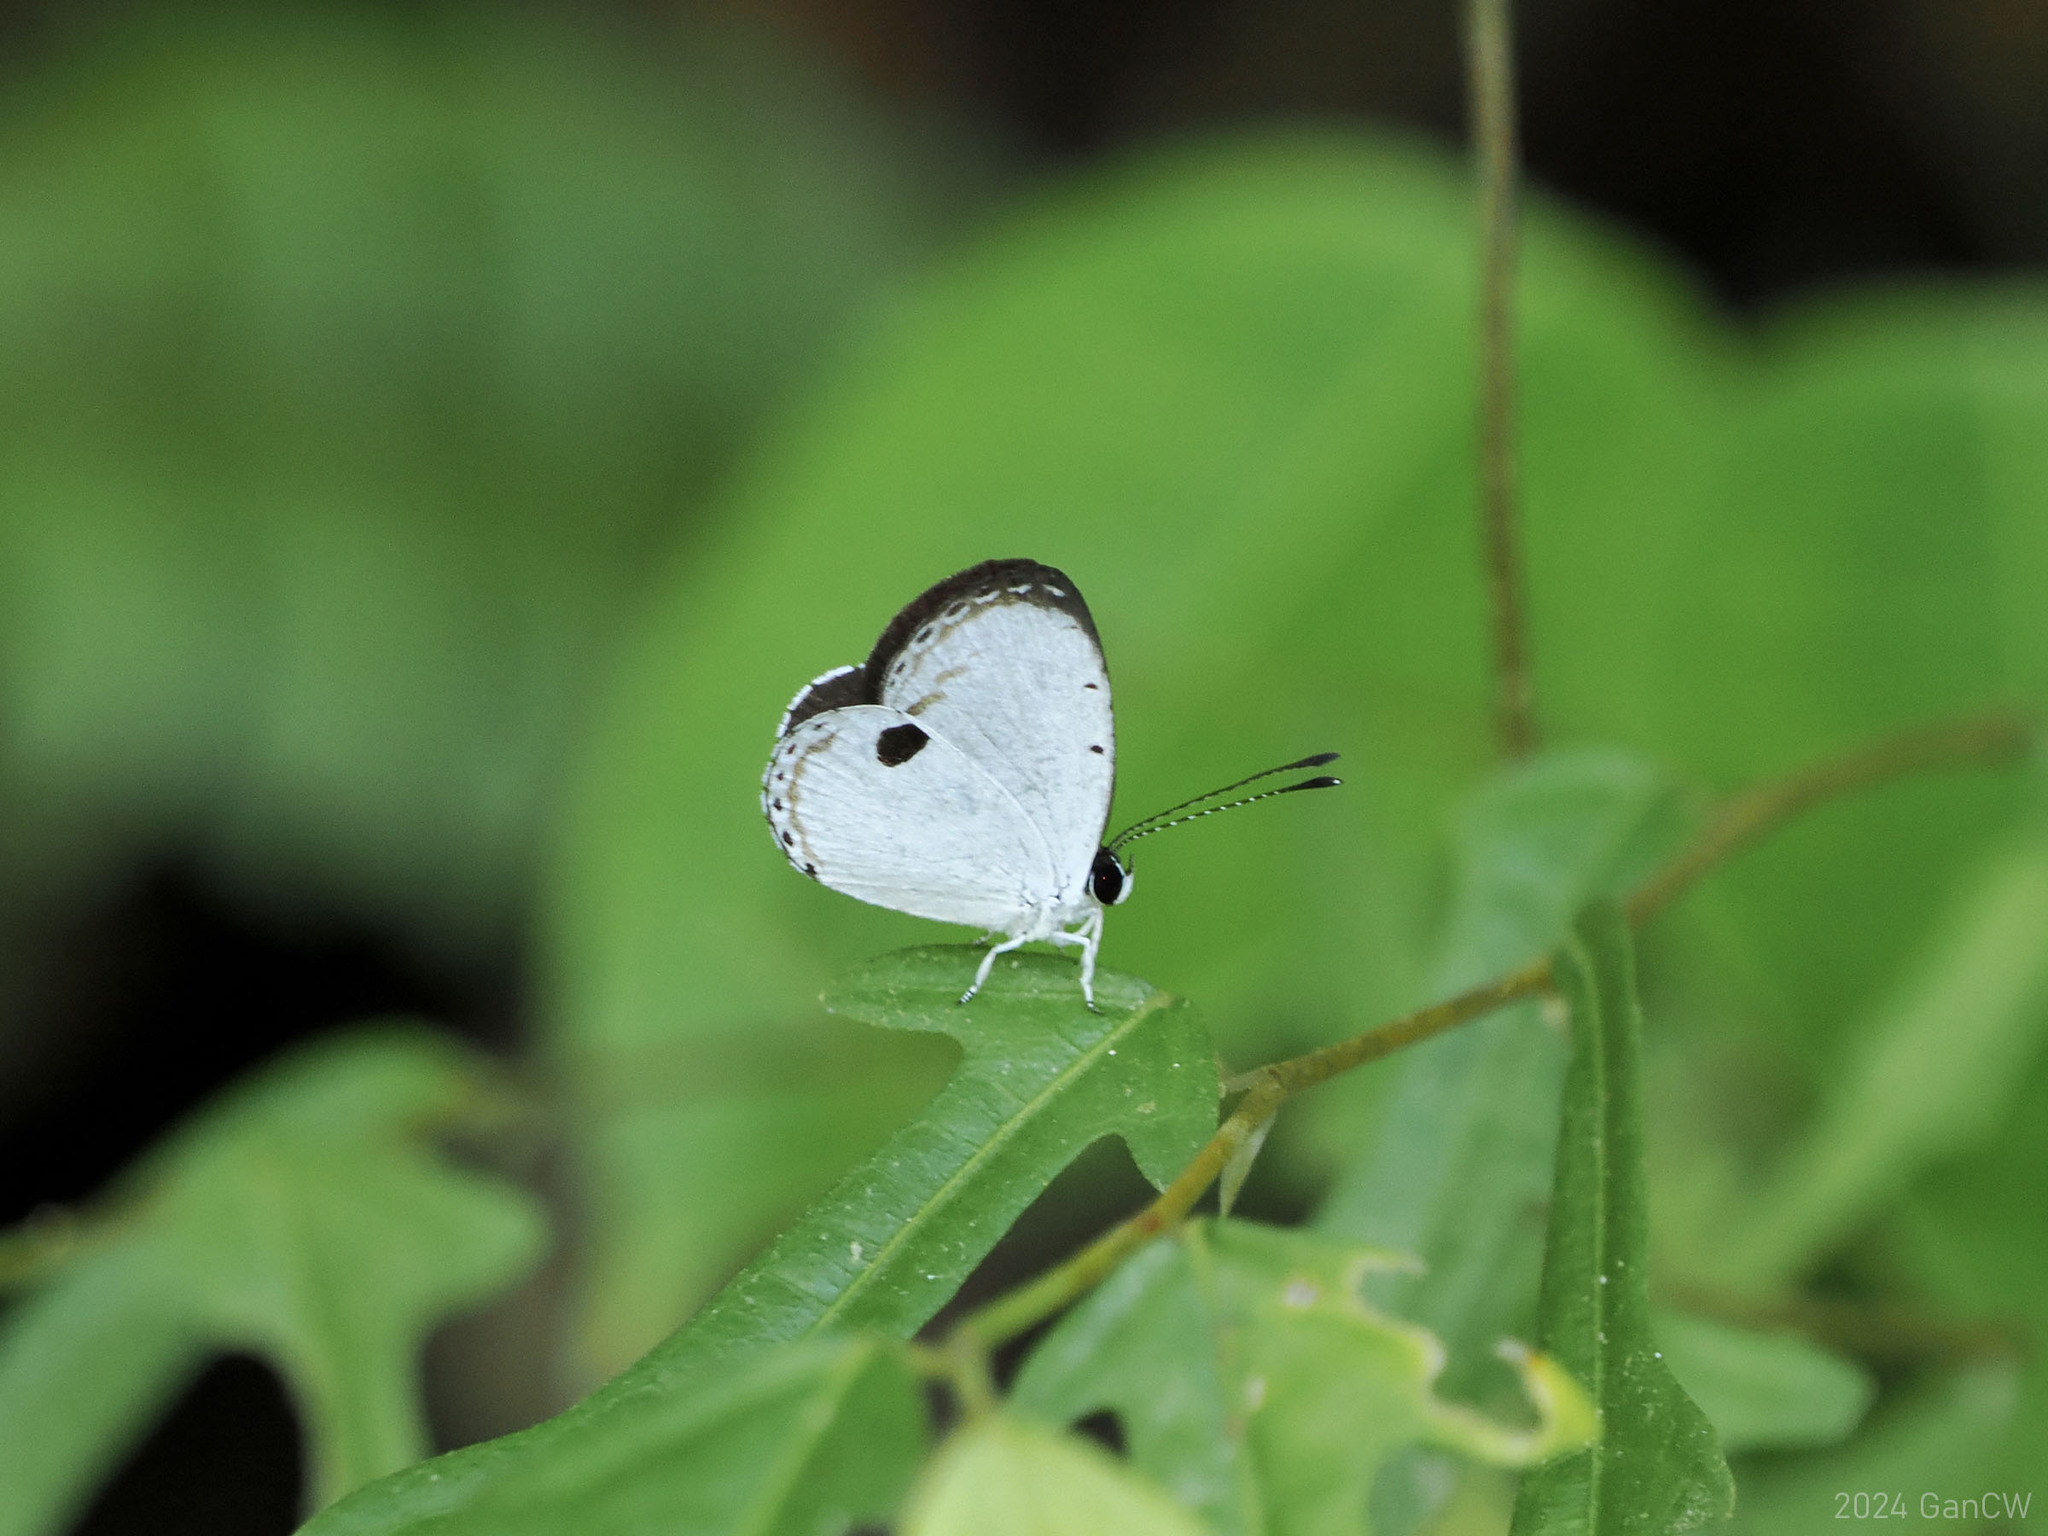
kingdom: Animalia
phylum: Arthropoda
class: Insecta
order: Lepidoptera
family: Lycaenidae
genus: Pithecops
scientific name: Pithecops corvus
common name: Forest quaker
